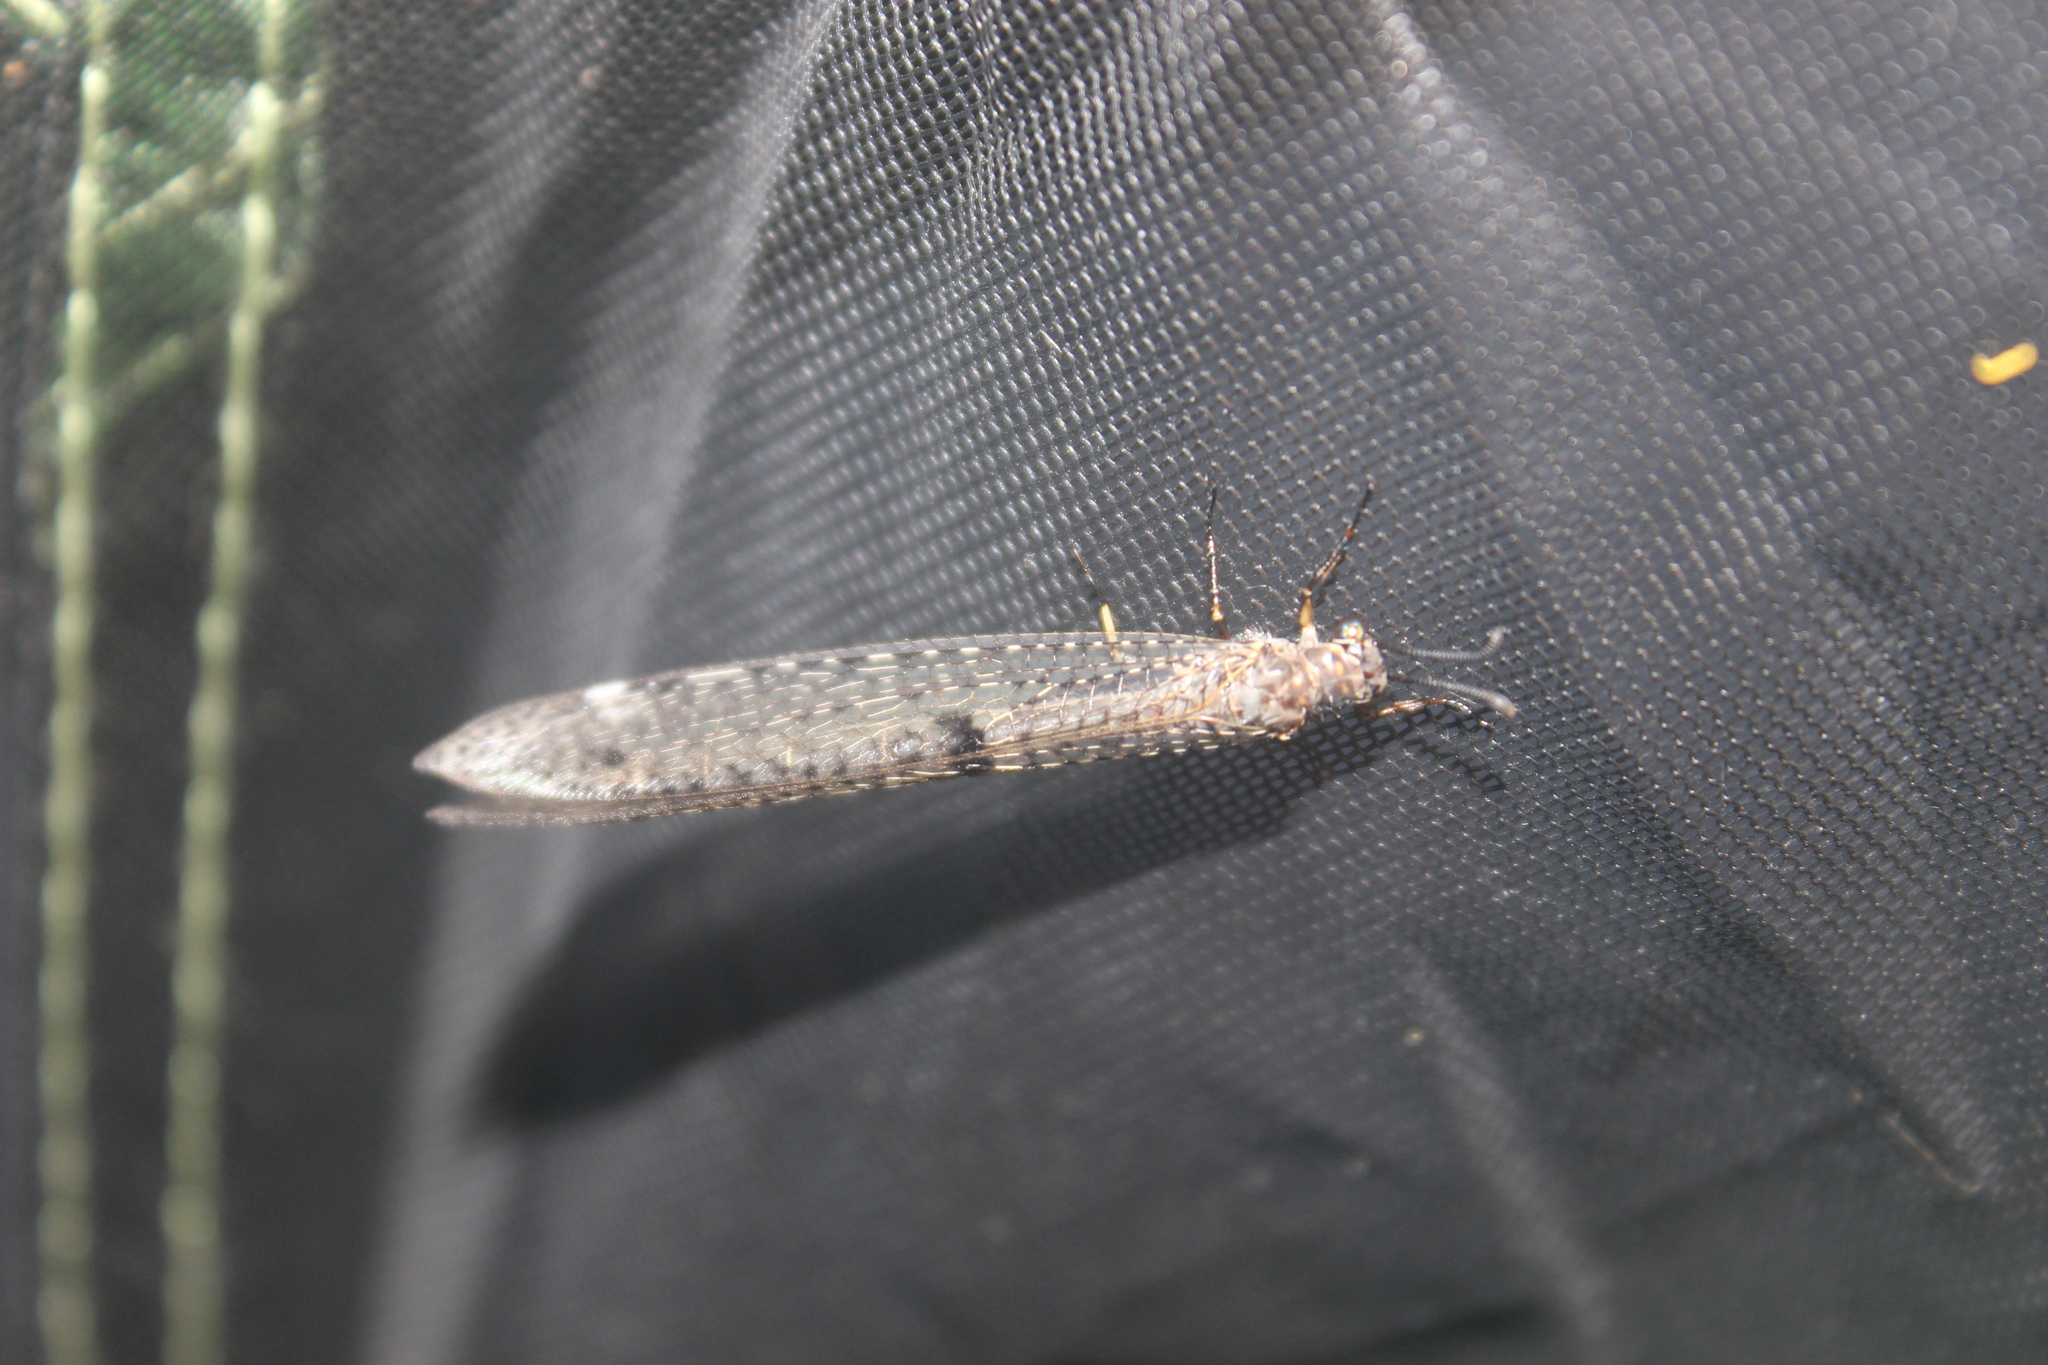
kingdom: Animalia
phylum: Arthropoda
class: Insecta
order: Neuroptera
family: Myrmeleontidae
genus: Weeleus
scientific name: Weeleus acutus
